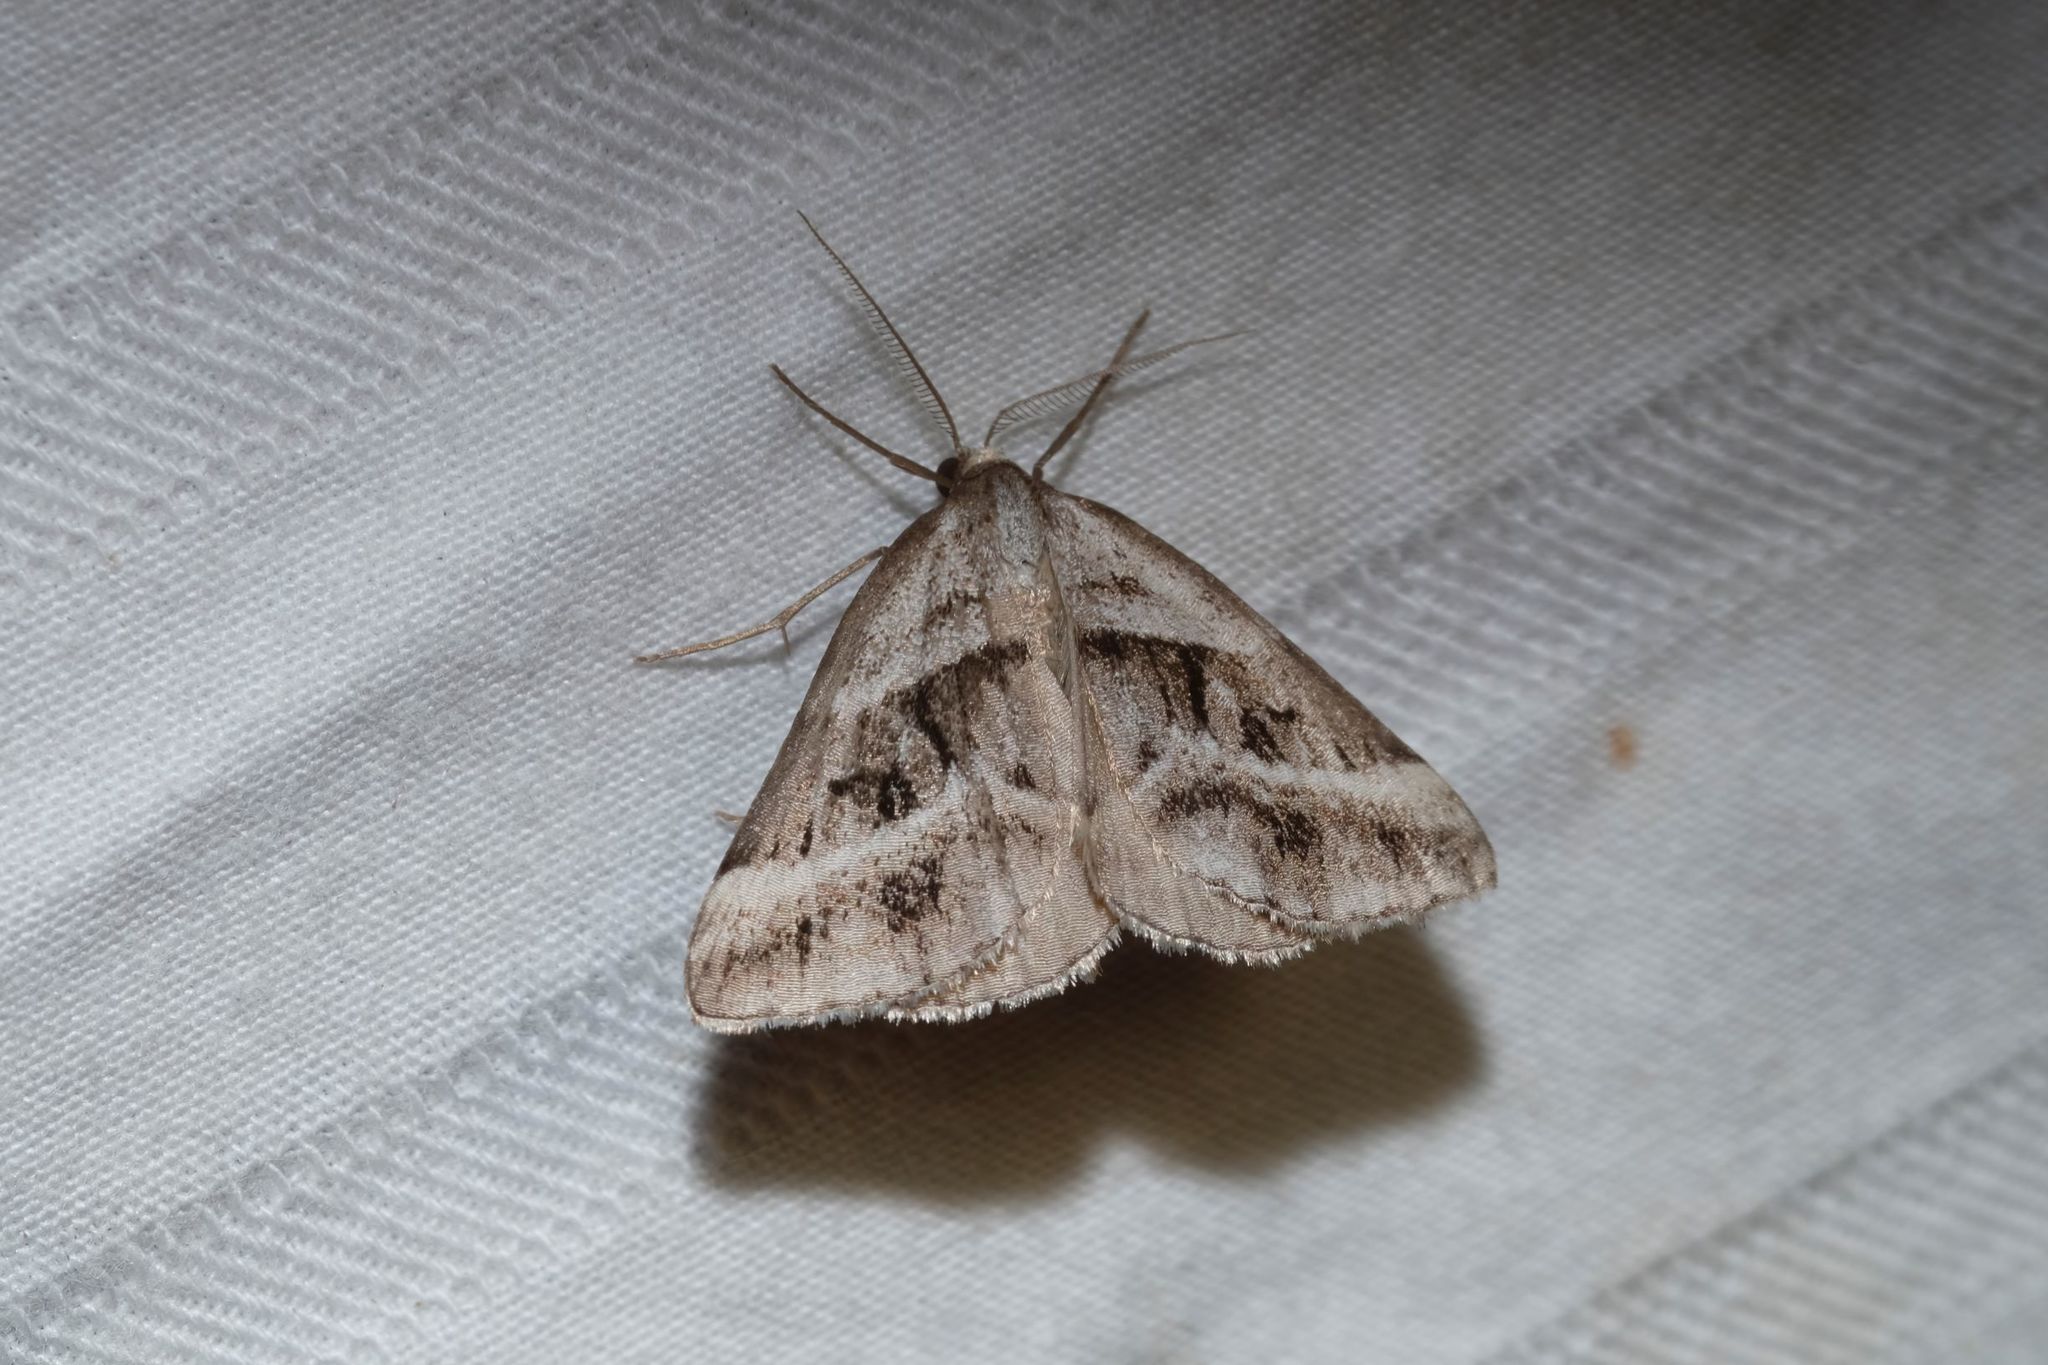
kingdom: Animalia
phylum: Arthropoda
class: Insecta
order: Lepidoptera
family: Geometridae
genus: Dichromodes
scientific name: Dichromodes stilbiata
